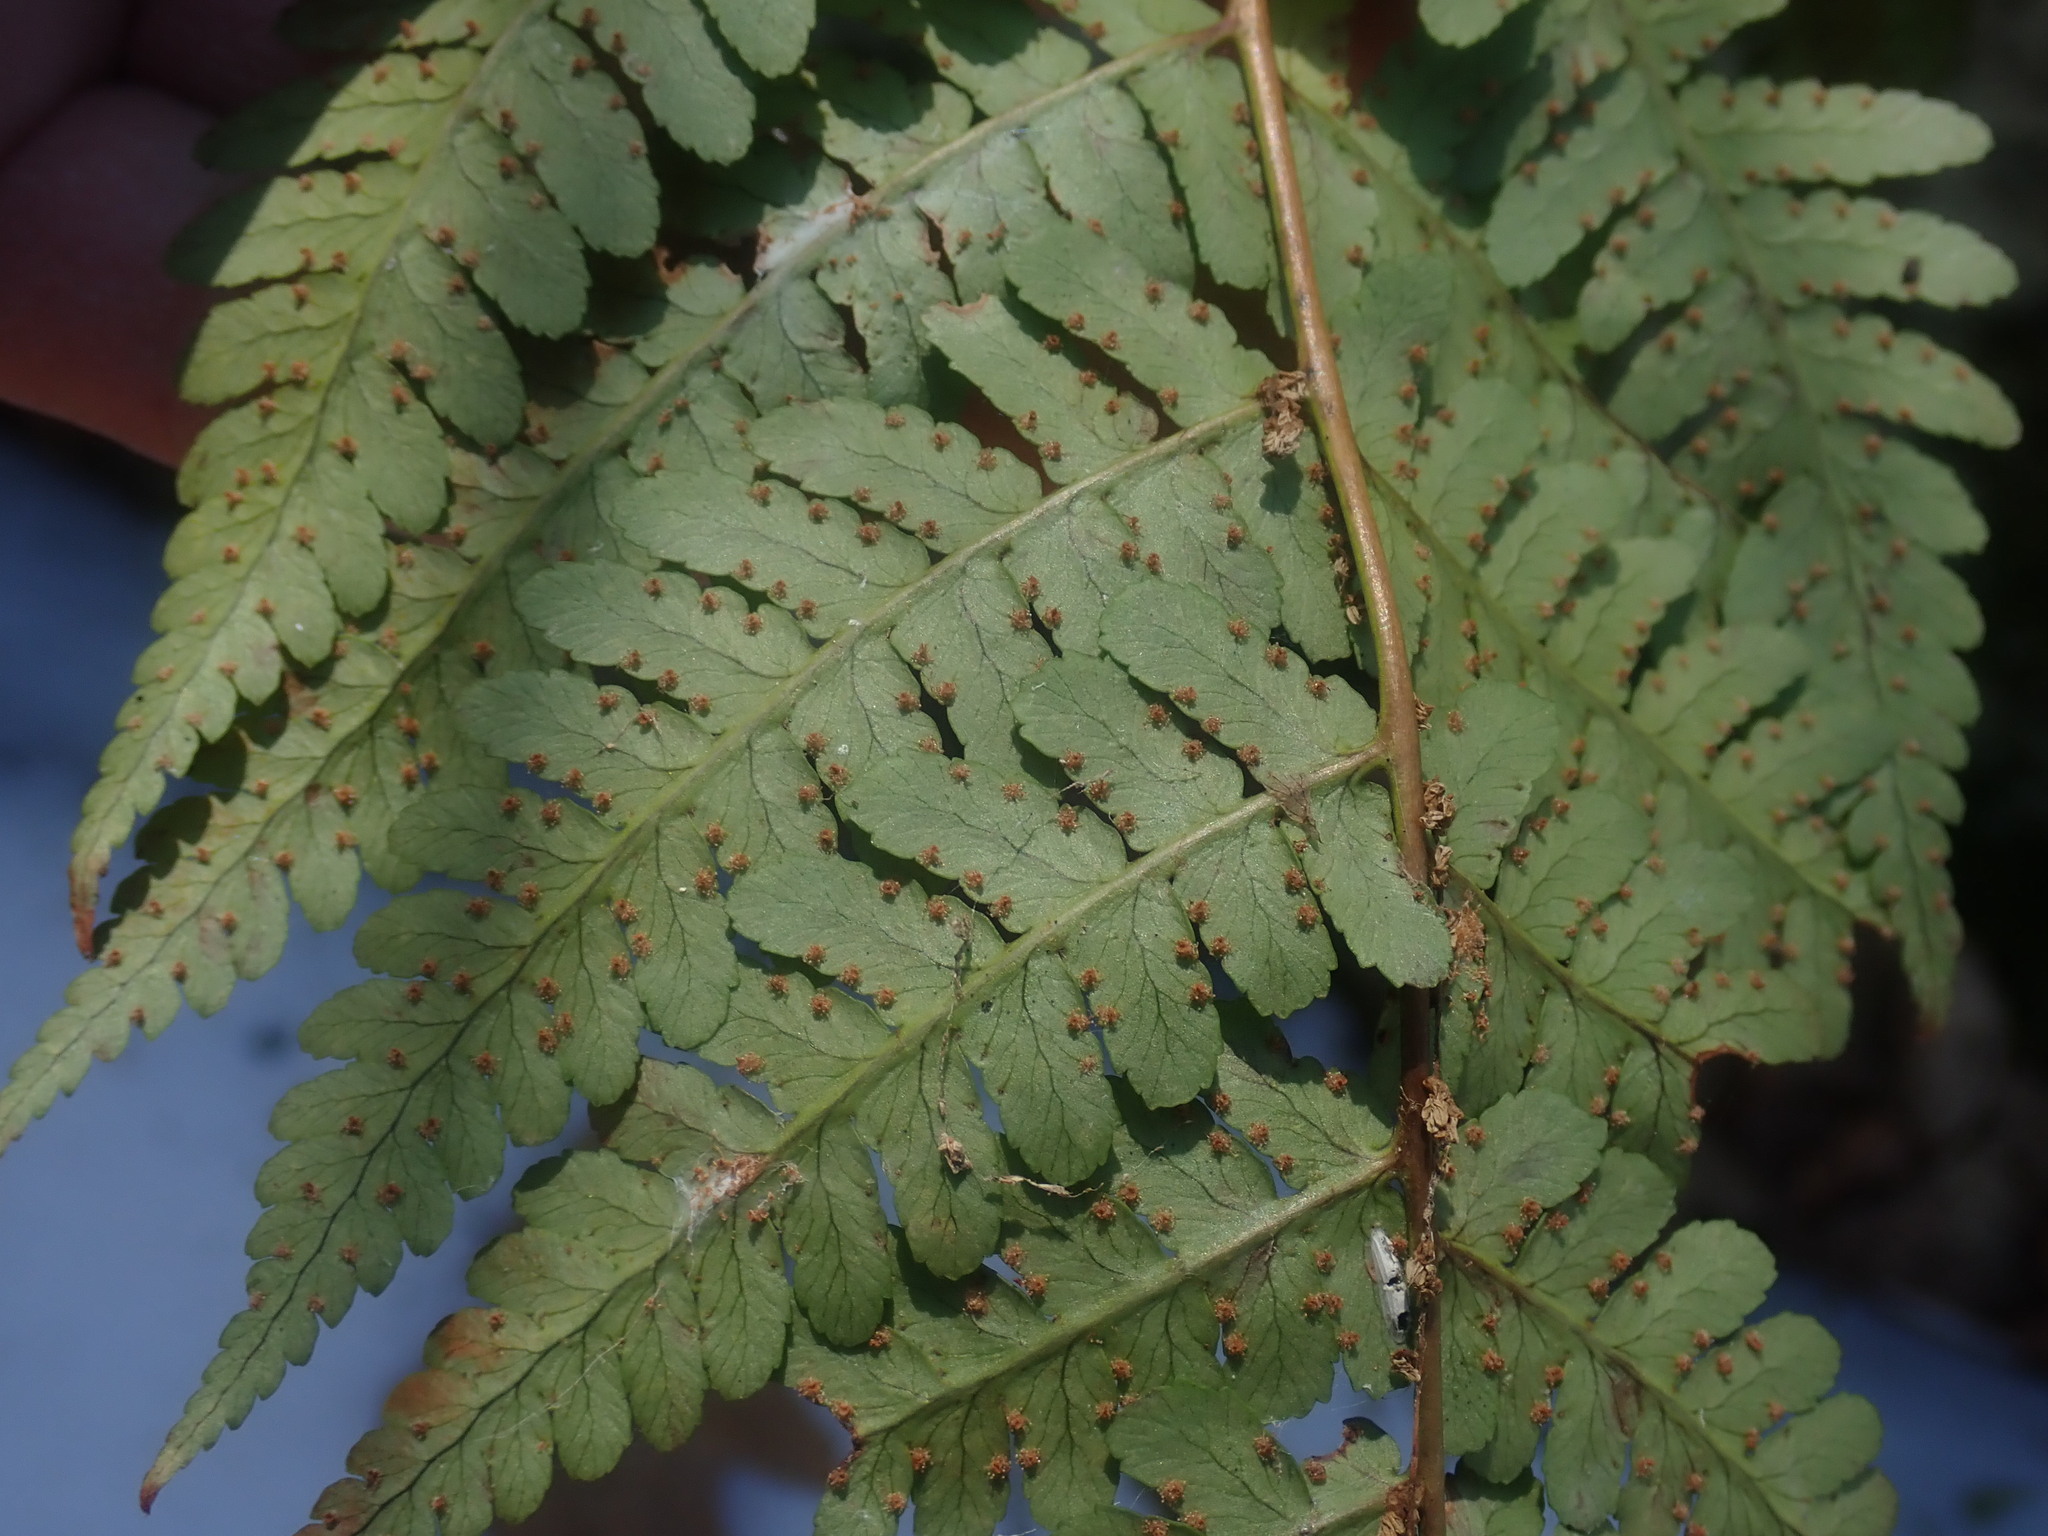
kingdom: Plantae
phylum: Tracheophyta
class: Polypodiopsida
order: Polypodiales
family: Dryopteridaceae
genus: Dryopteris
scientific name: Dryopteris marginalis
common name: Marginal wood fern
